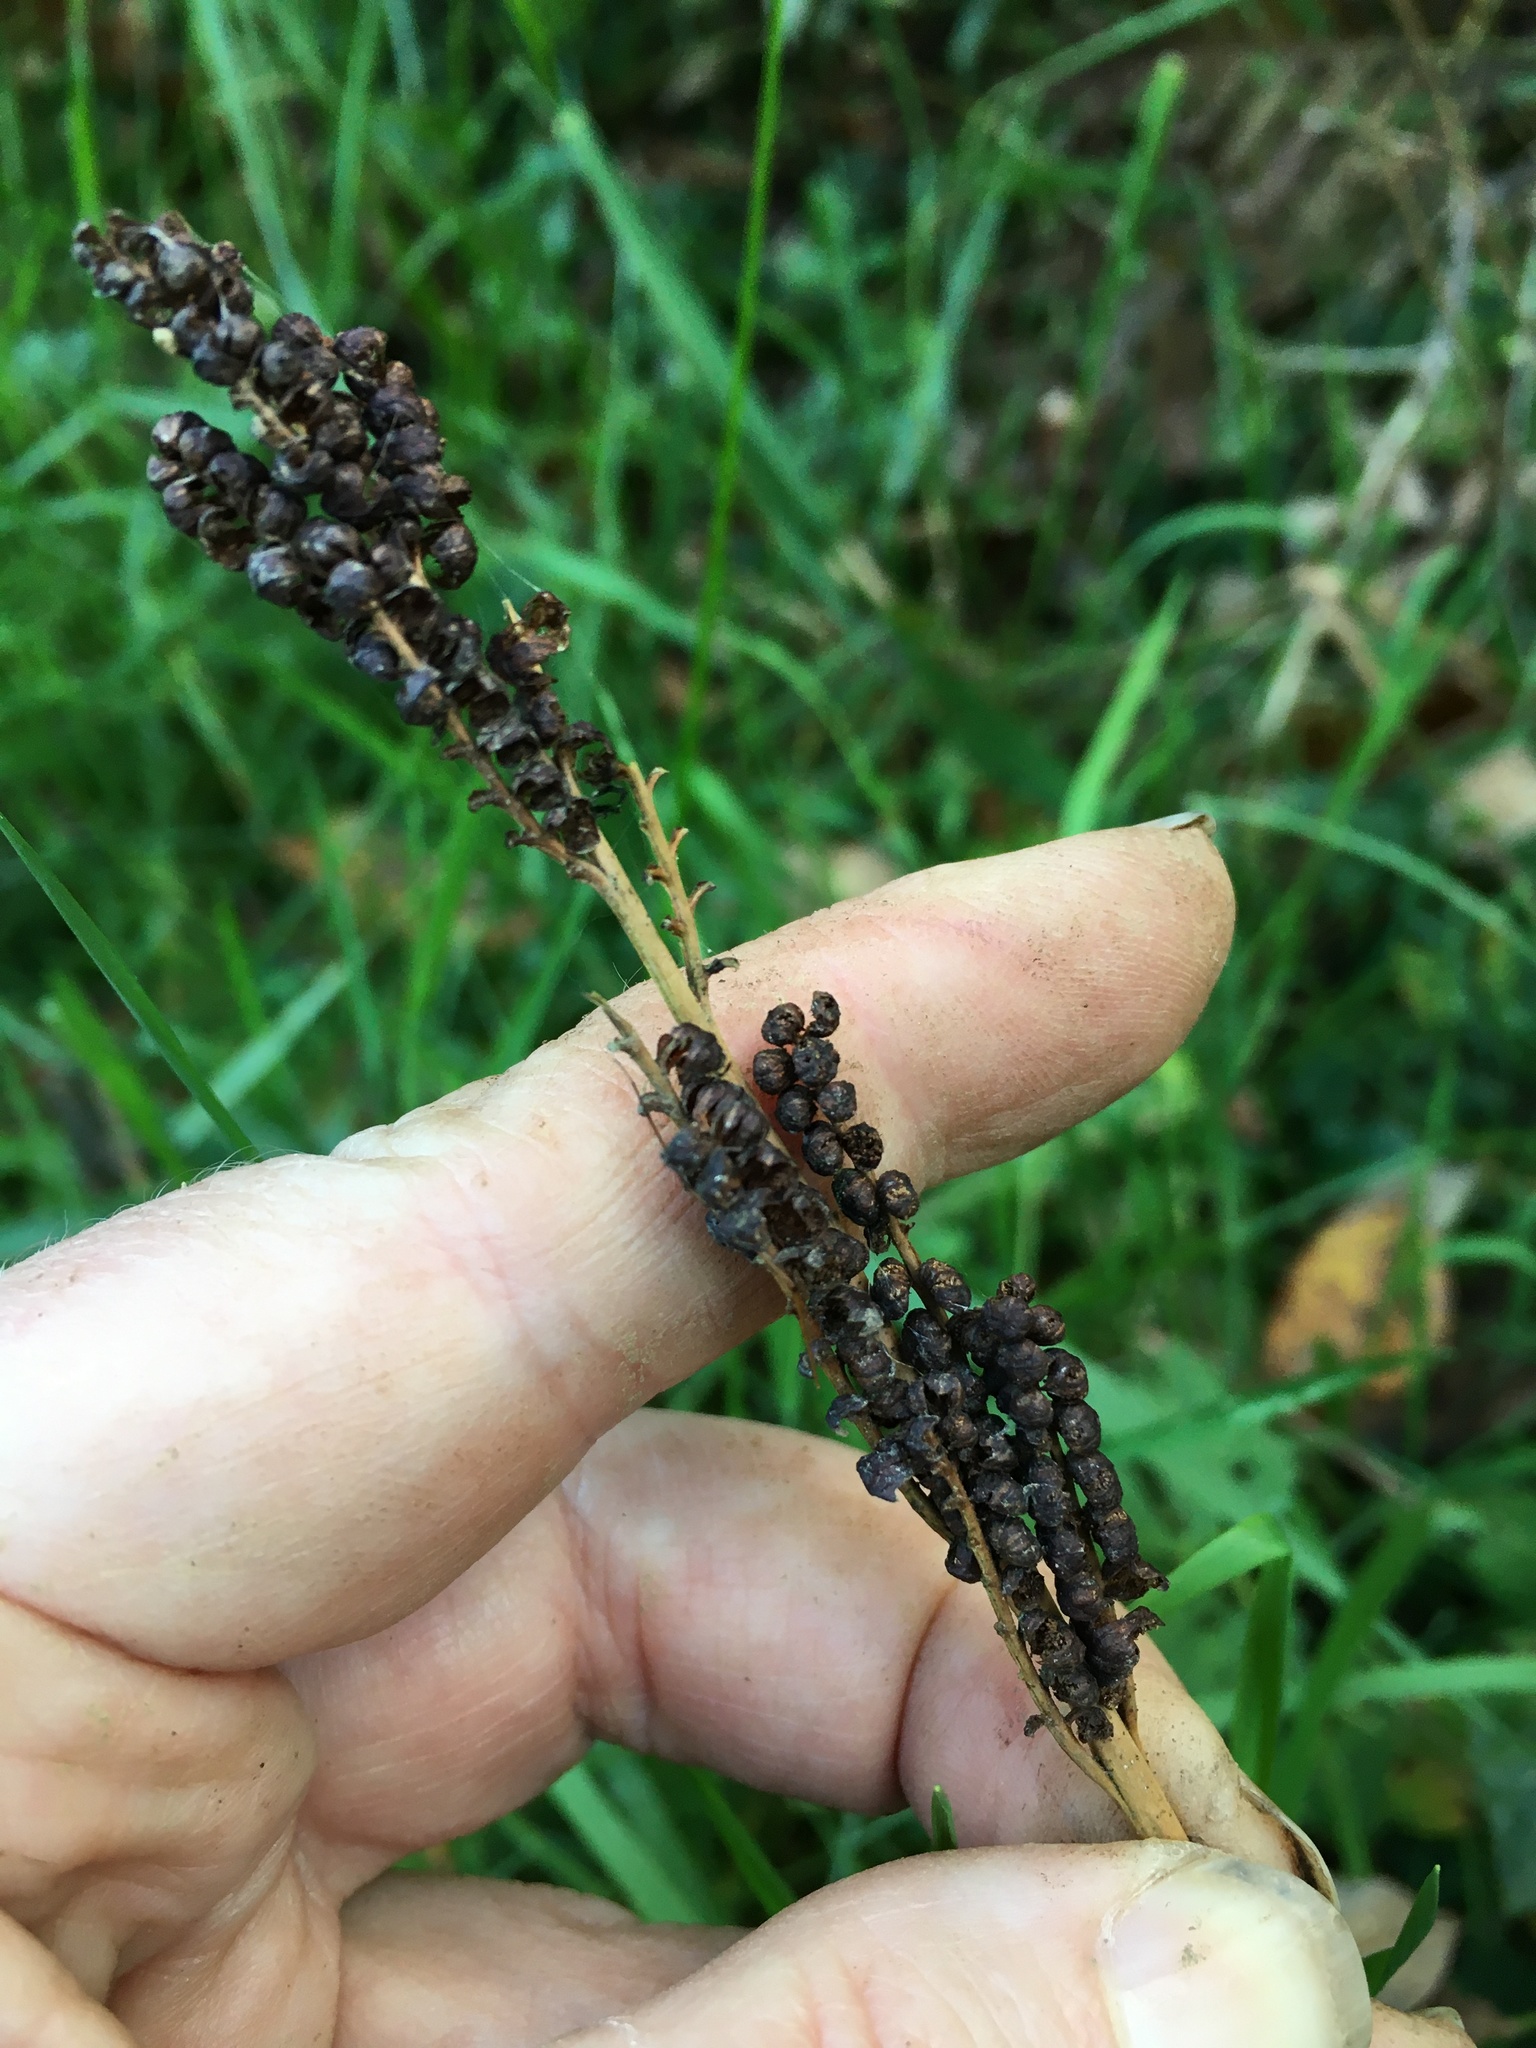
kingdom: Plantae
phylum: Tracheophyta
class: Polypodiopsida
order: Polypodiales
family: Onocleaceae
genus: Onoclea
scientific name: Onoclea sensibilis
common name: Sensitive fern
